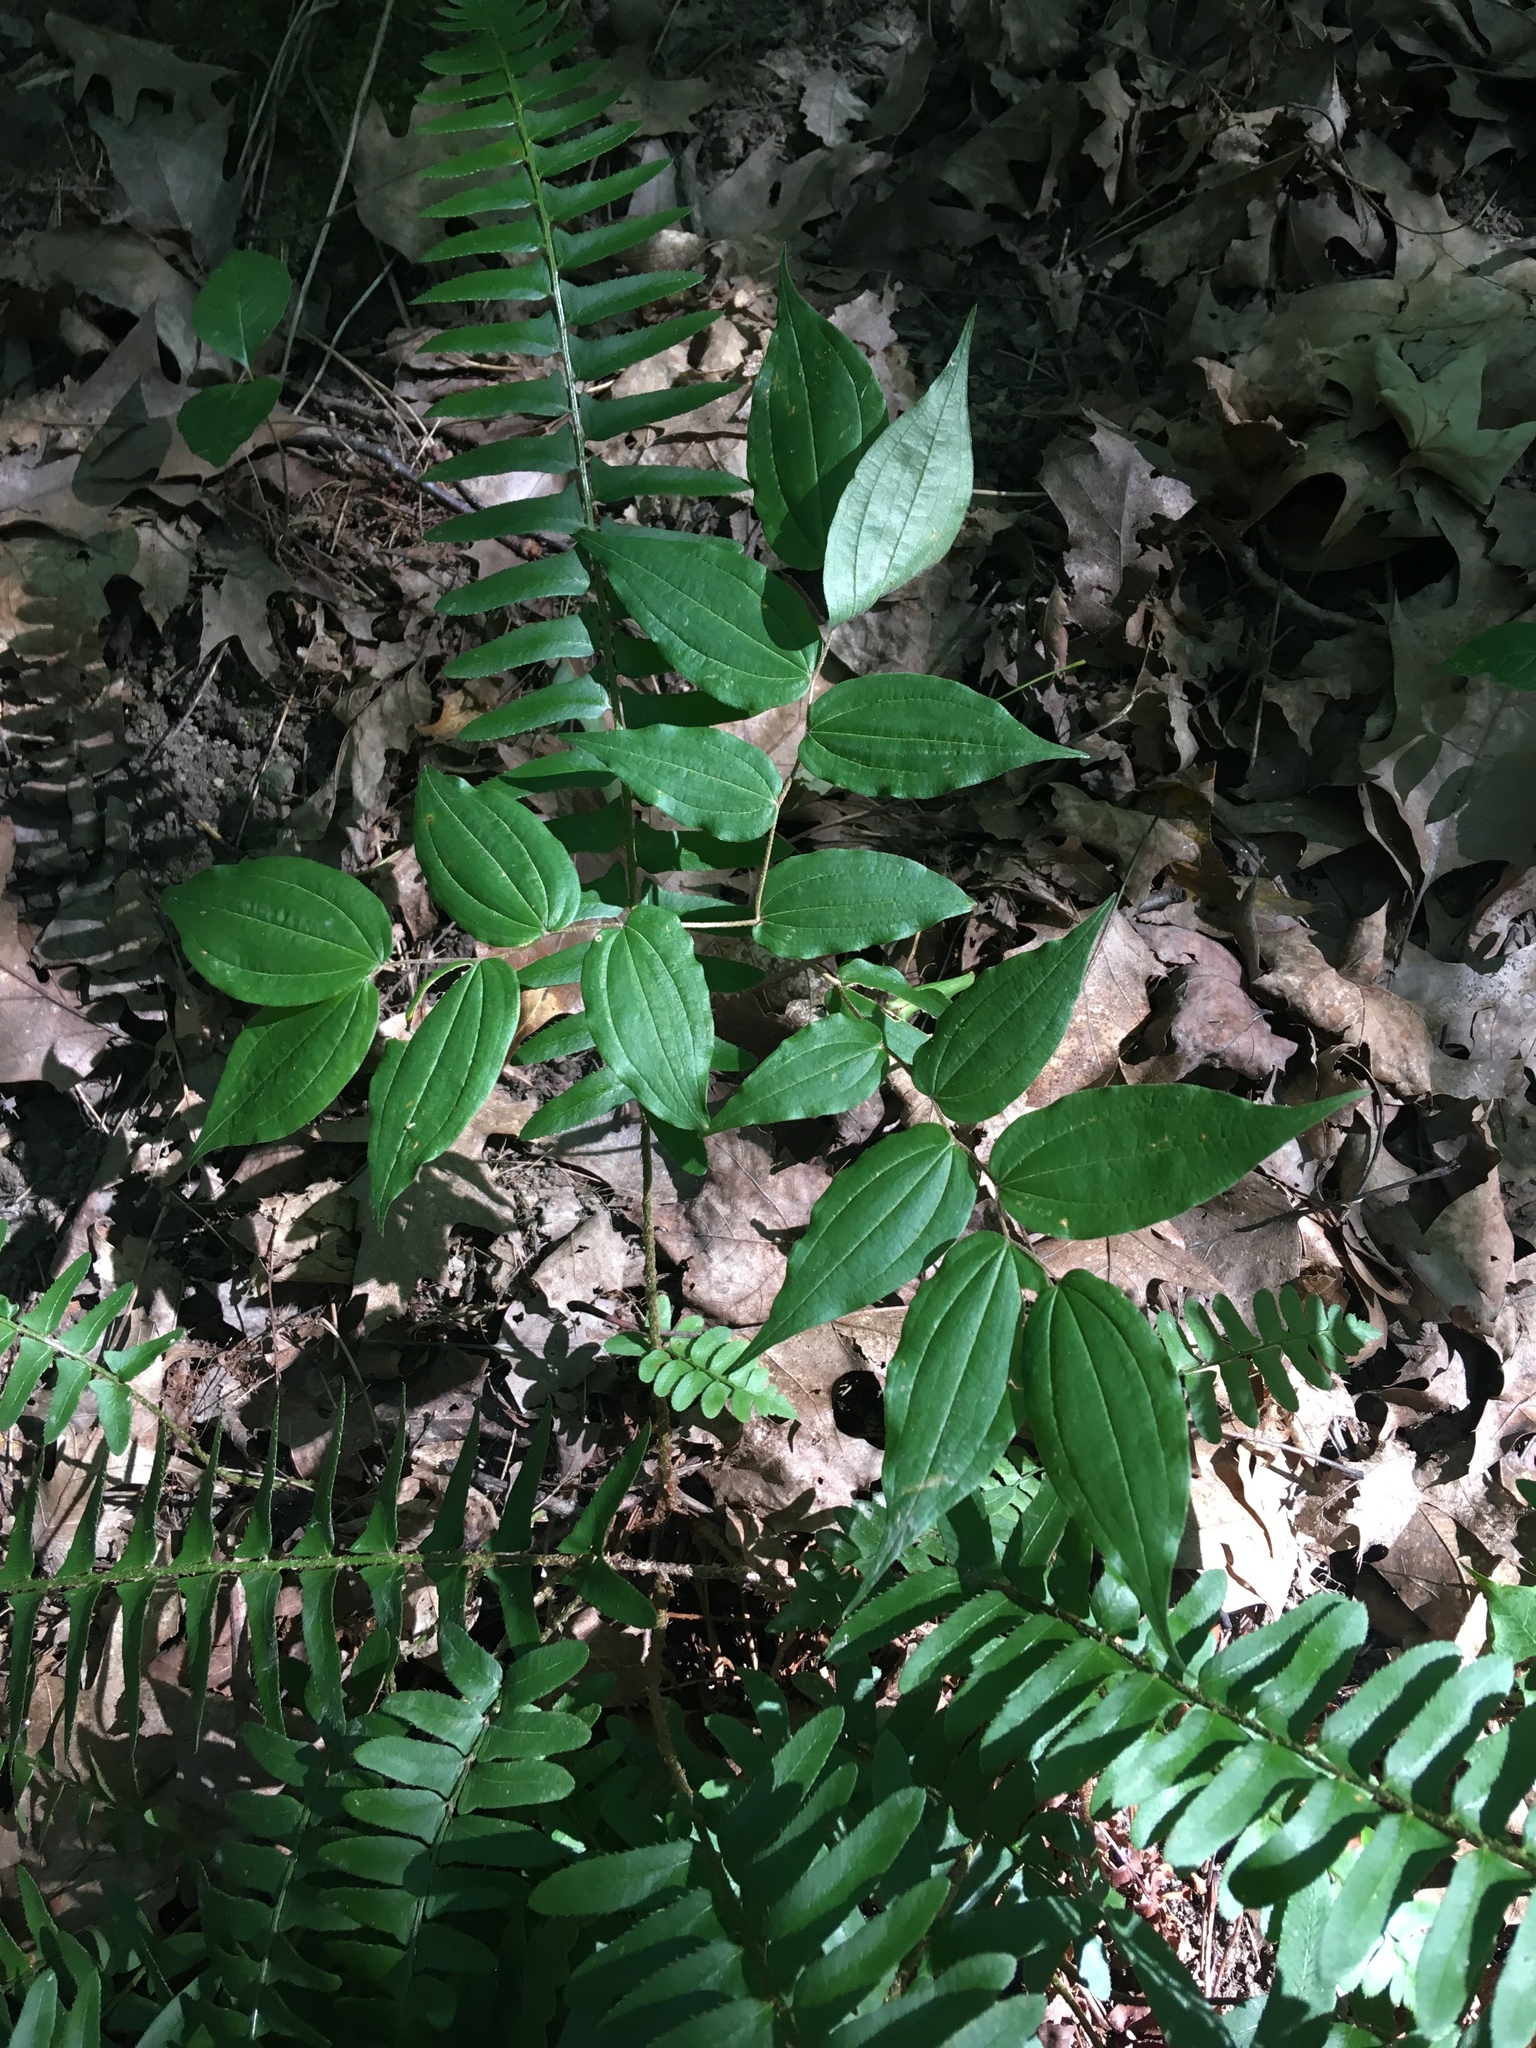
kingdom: Plantae
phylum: Tracheophyta
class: Liliopsida
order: Liliales
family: Liliaceae
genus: Prosartes
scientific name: Prosartes lanuginosa
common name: Hairy mandarin
